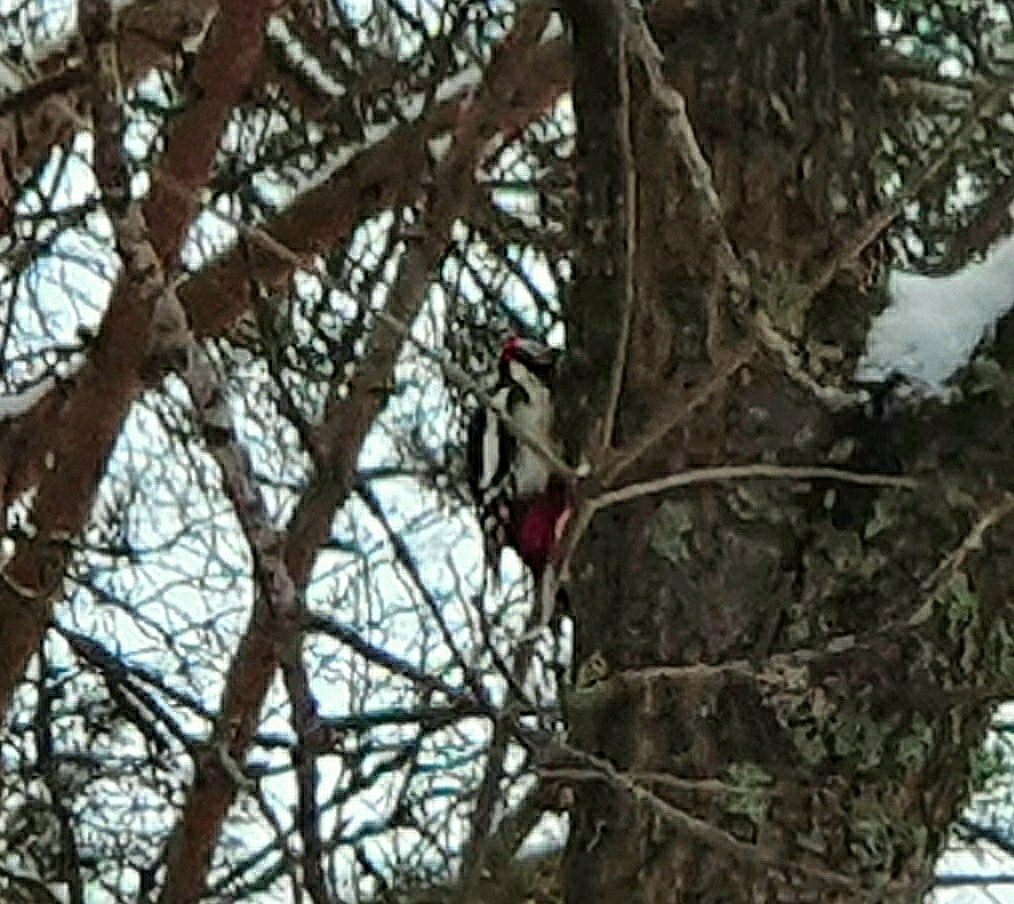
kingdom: Animalia
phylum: Chordata
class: Aves
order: Piciformes
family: Picidae
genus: Dendrocopos
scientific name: Dendrocopos major
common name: Great spotted woodpecker
